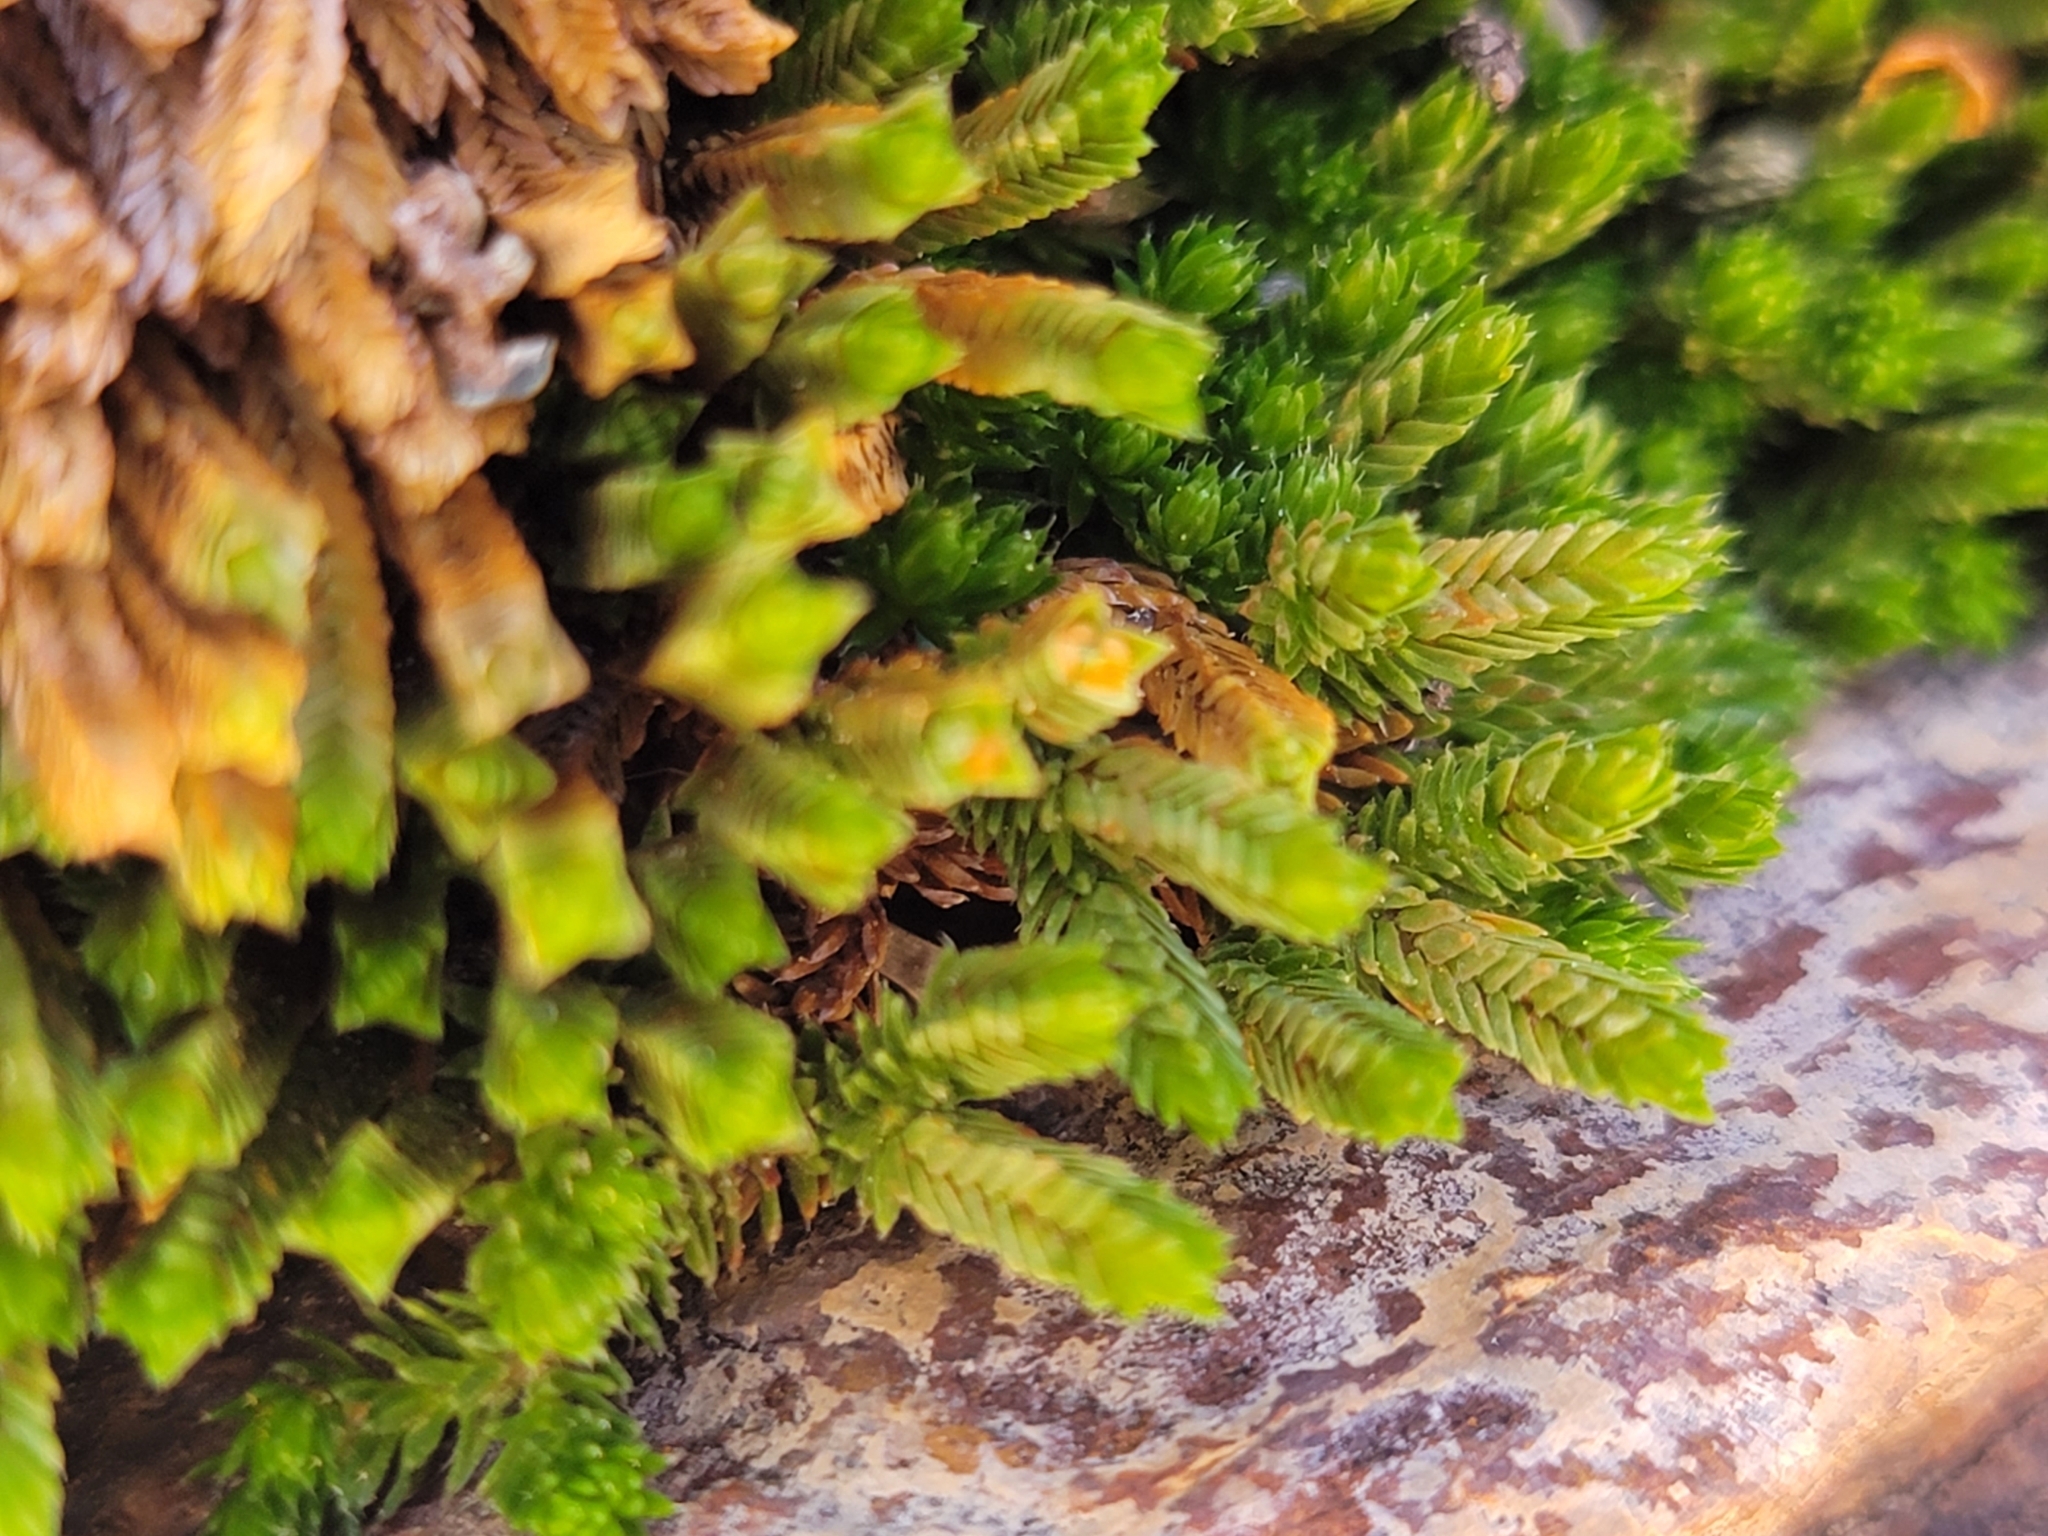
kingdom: Plantae
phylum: Tracheophyta
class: Lycopodiopsida
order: Selaginellales
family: Selaginellaceae
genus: Selaginella
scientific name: Selaginella watsonii
